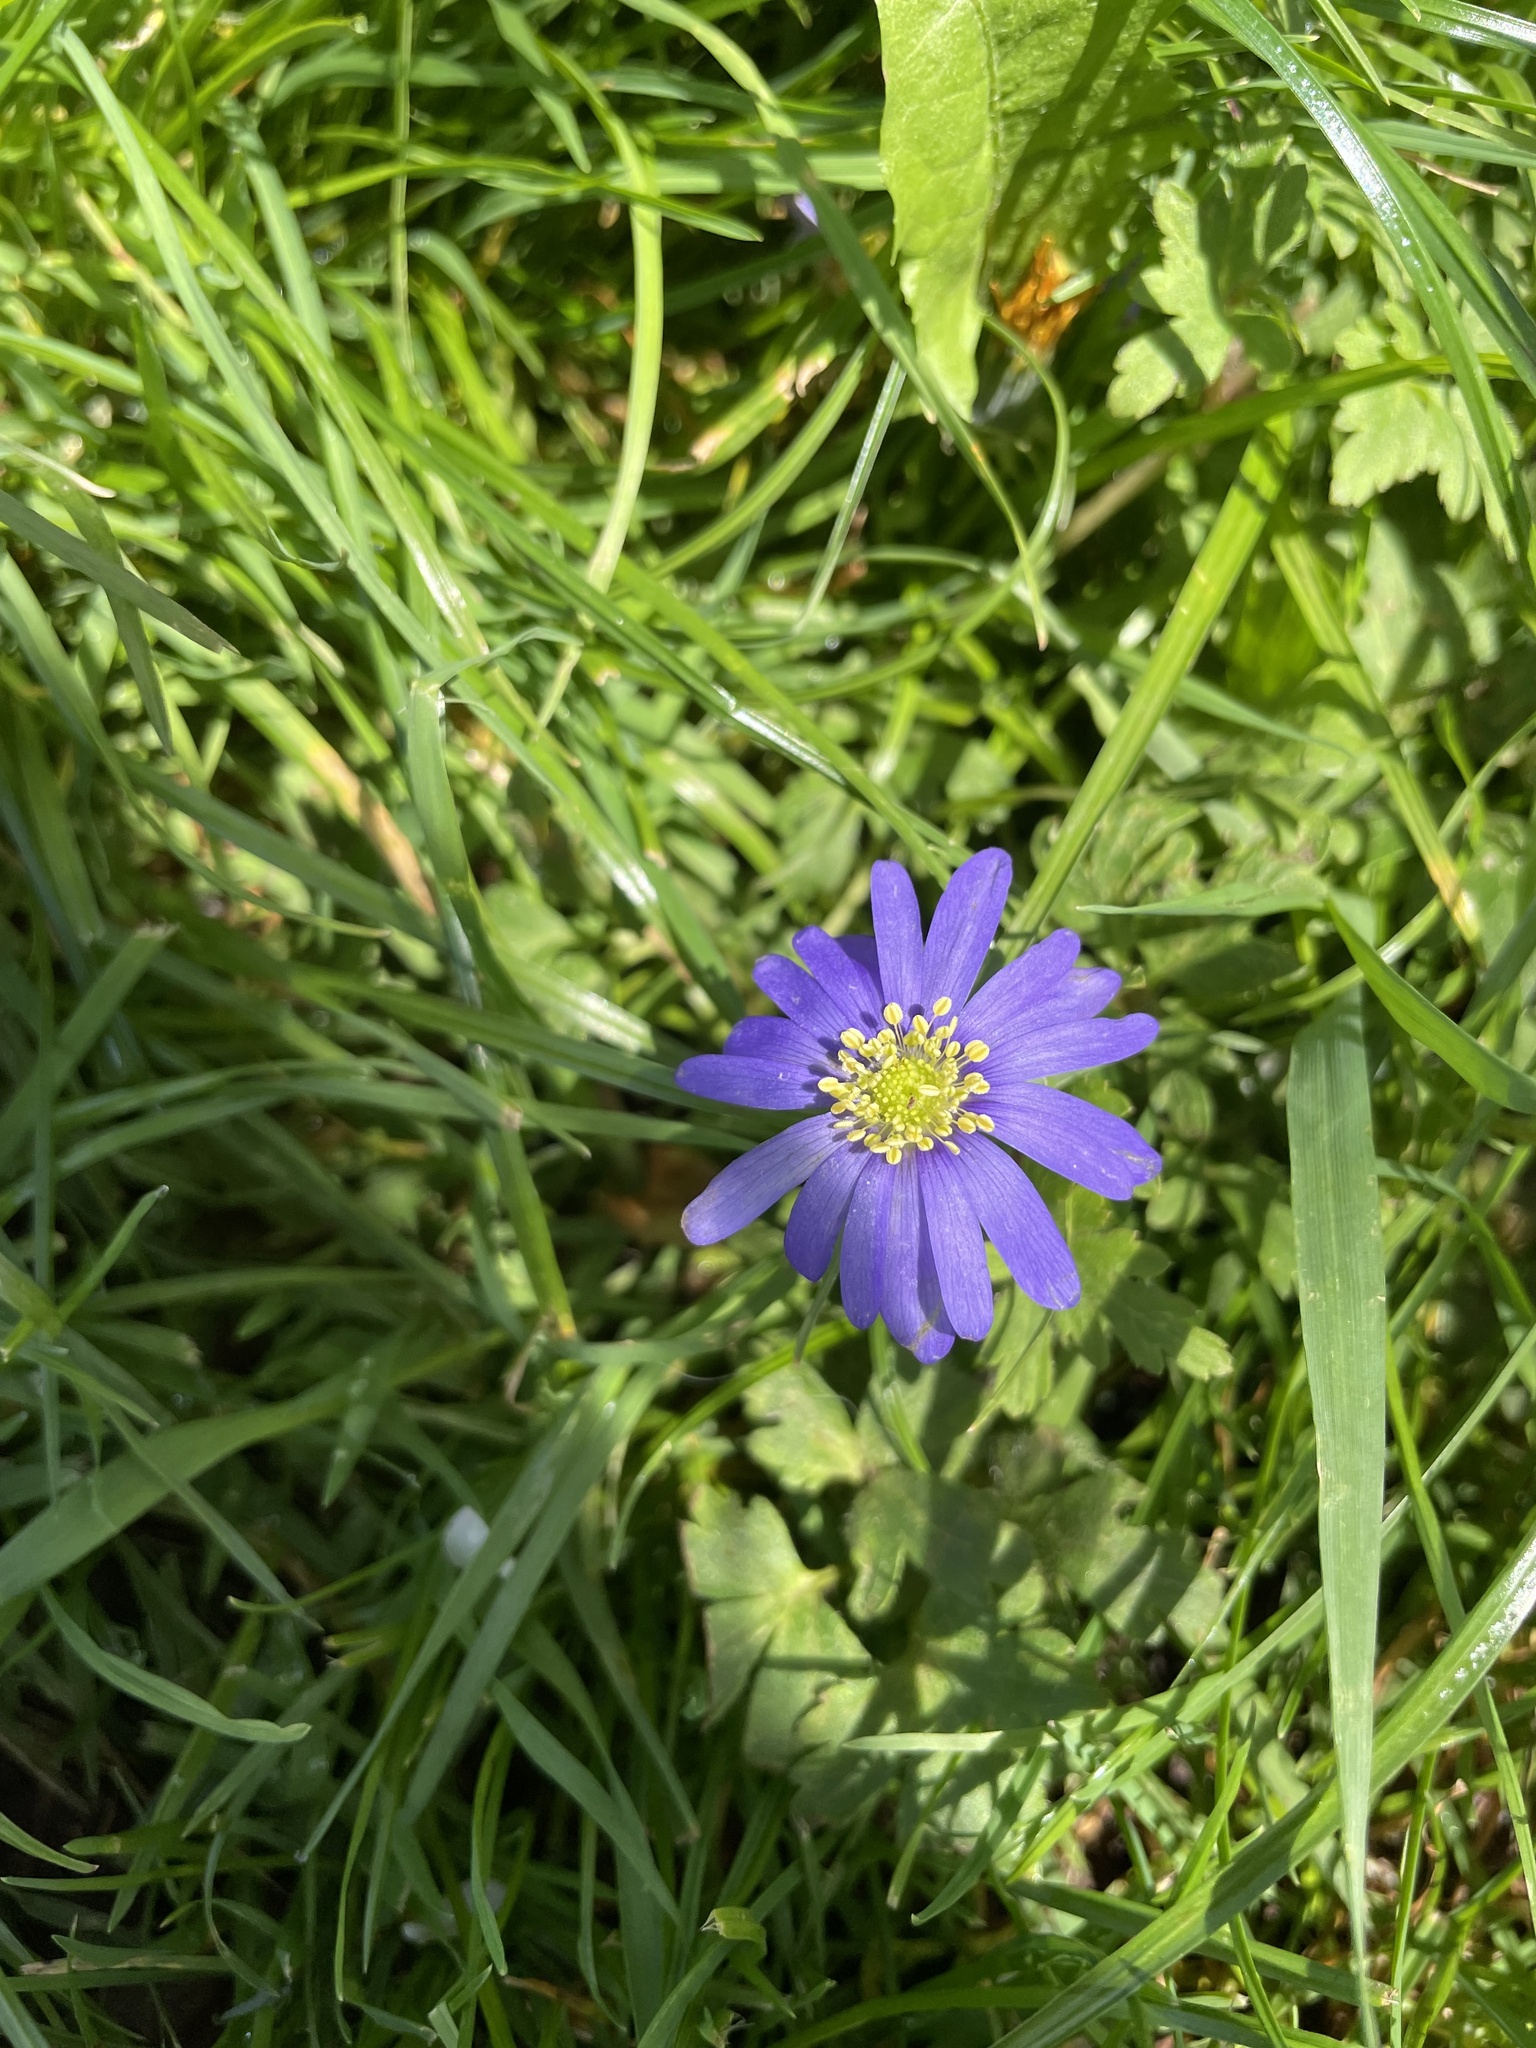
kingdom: Plantae
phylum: Tracheophyta
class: Magnoliopsida
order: Ranunculales
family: Ranunculaceae
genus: Anemone
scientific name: Anemone blanda
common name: Balkan anemone
